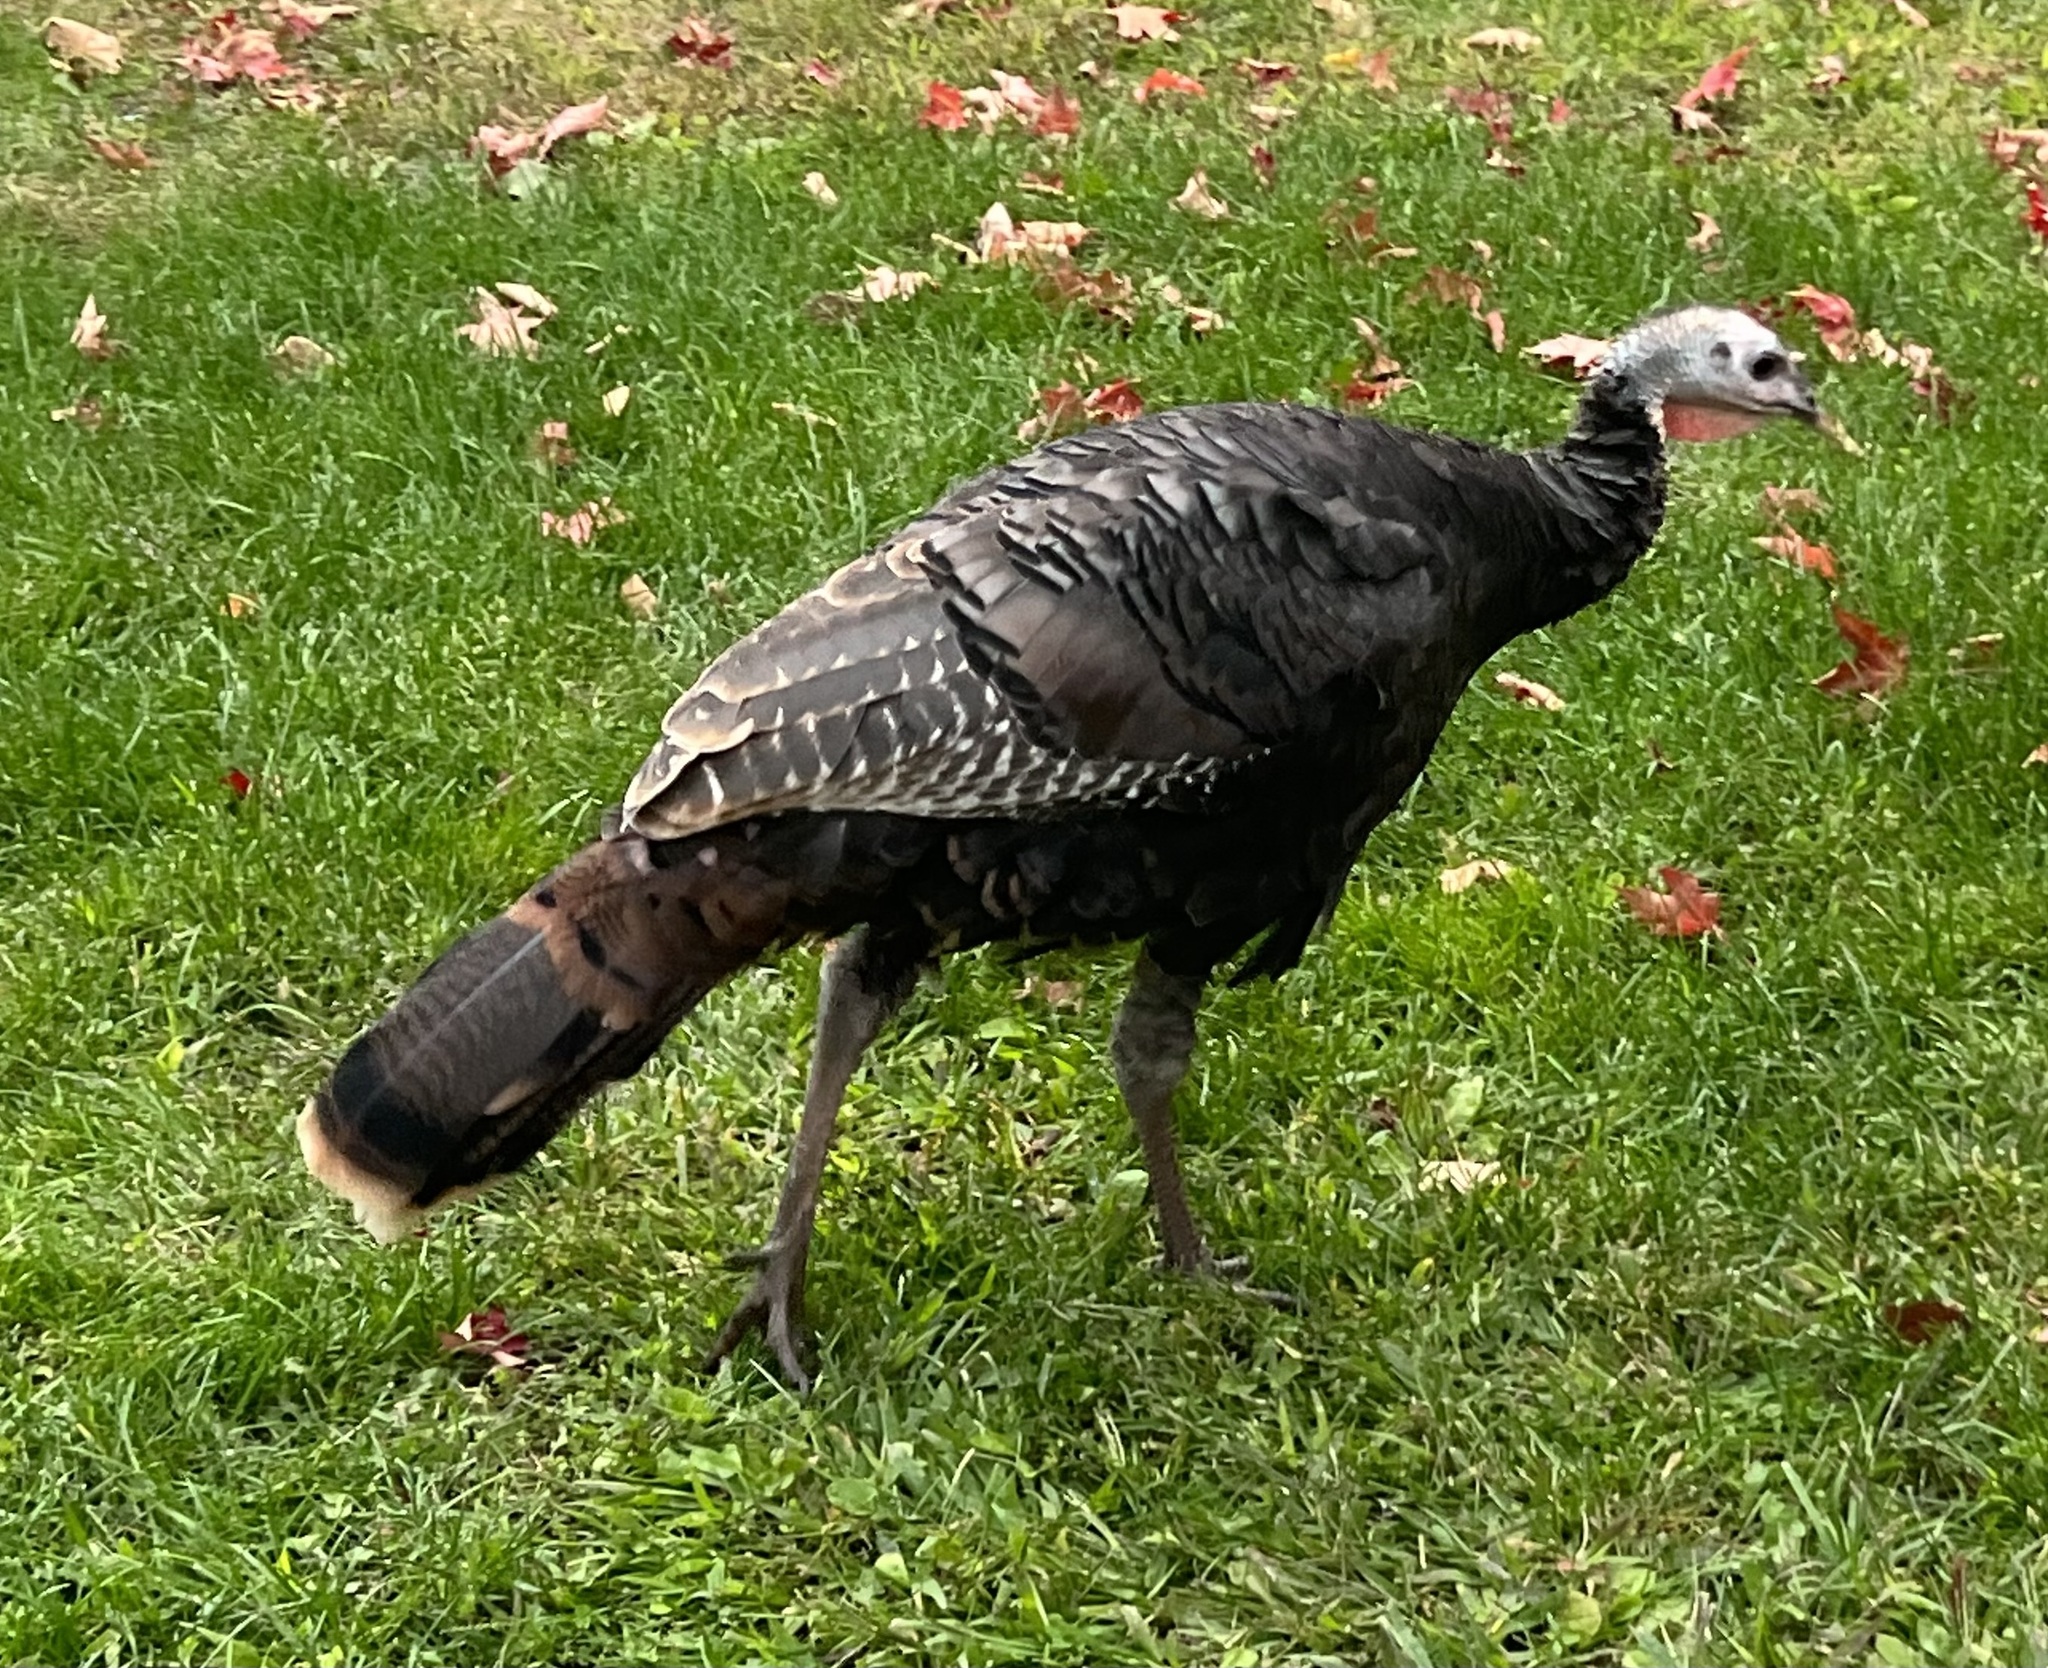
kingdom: Animalia
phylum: Chordata
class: Aves
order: Galliformes
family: Phasianidae
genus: Meleagris
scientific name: Meleagris gallopavo
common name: Wild turkey
